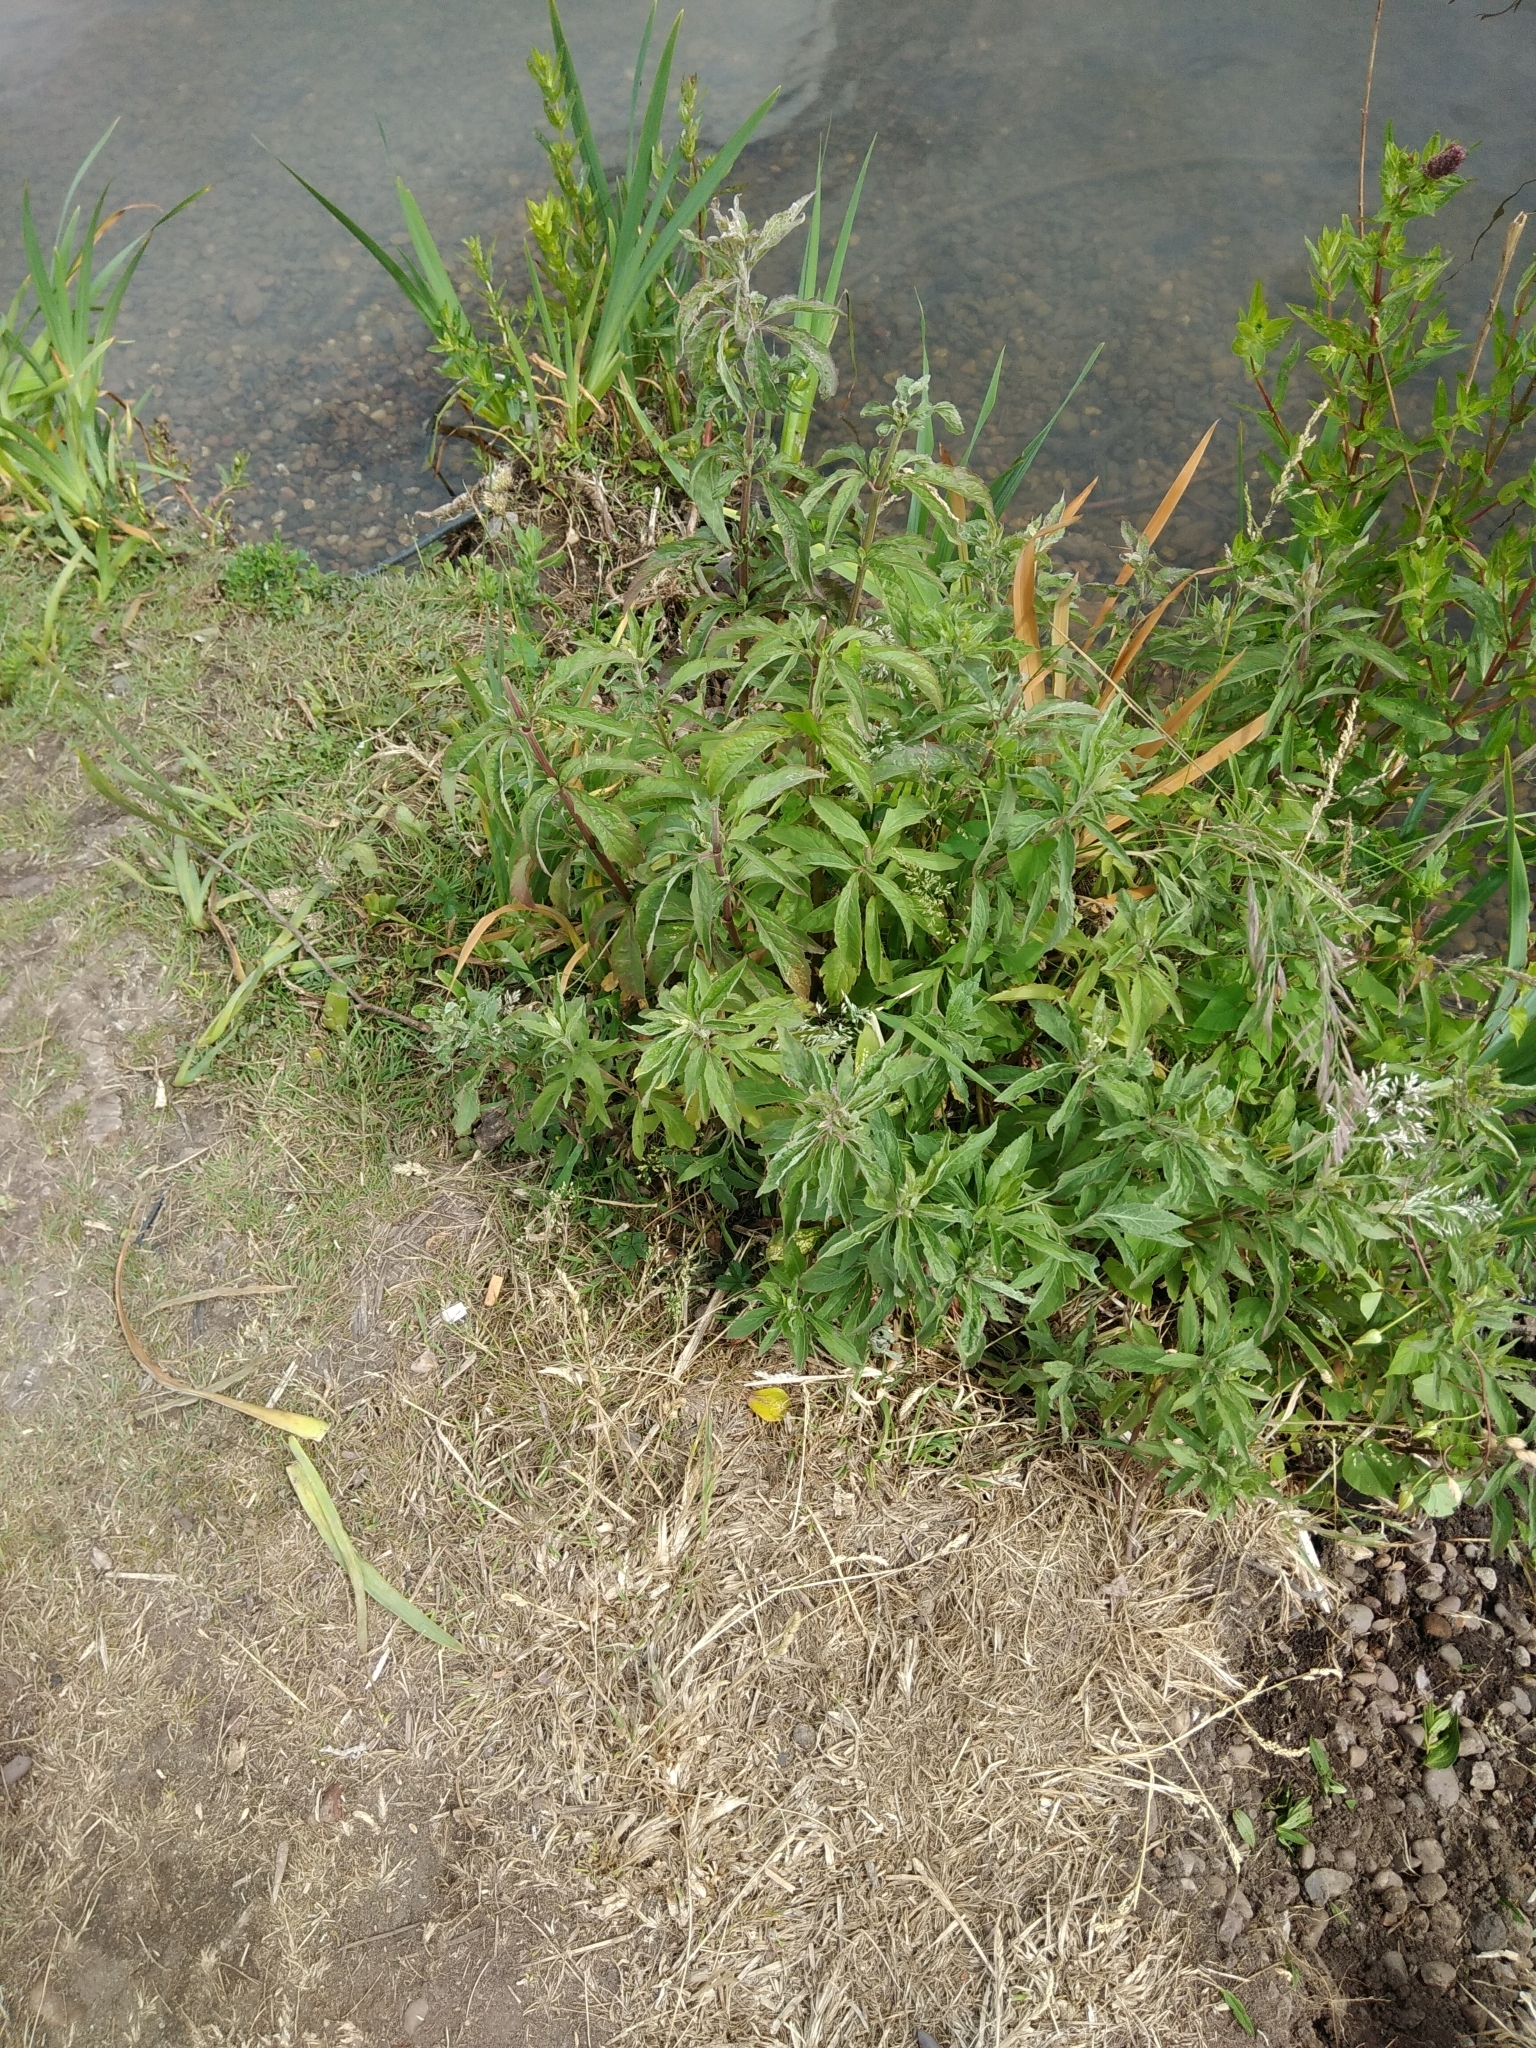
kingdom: Plantae
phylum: Tracheophyta
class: Magnoliopsida
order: Asterales
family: Asteraceae
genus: Eupatorium
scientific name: Eupatorium cannabinum
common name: Hemp-agrimony
